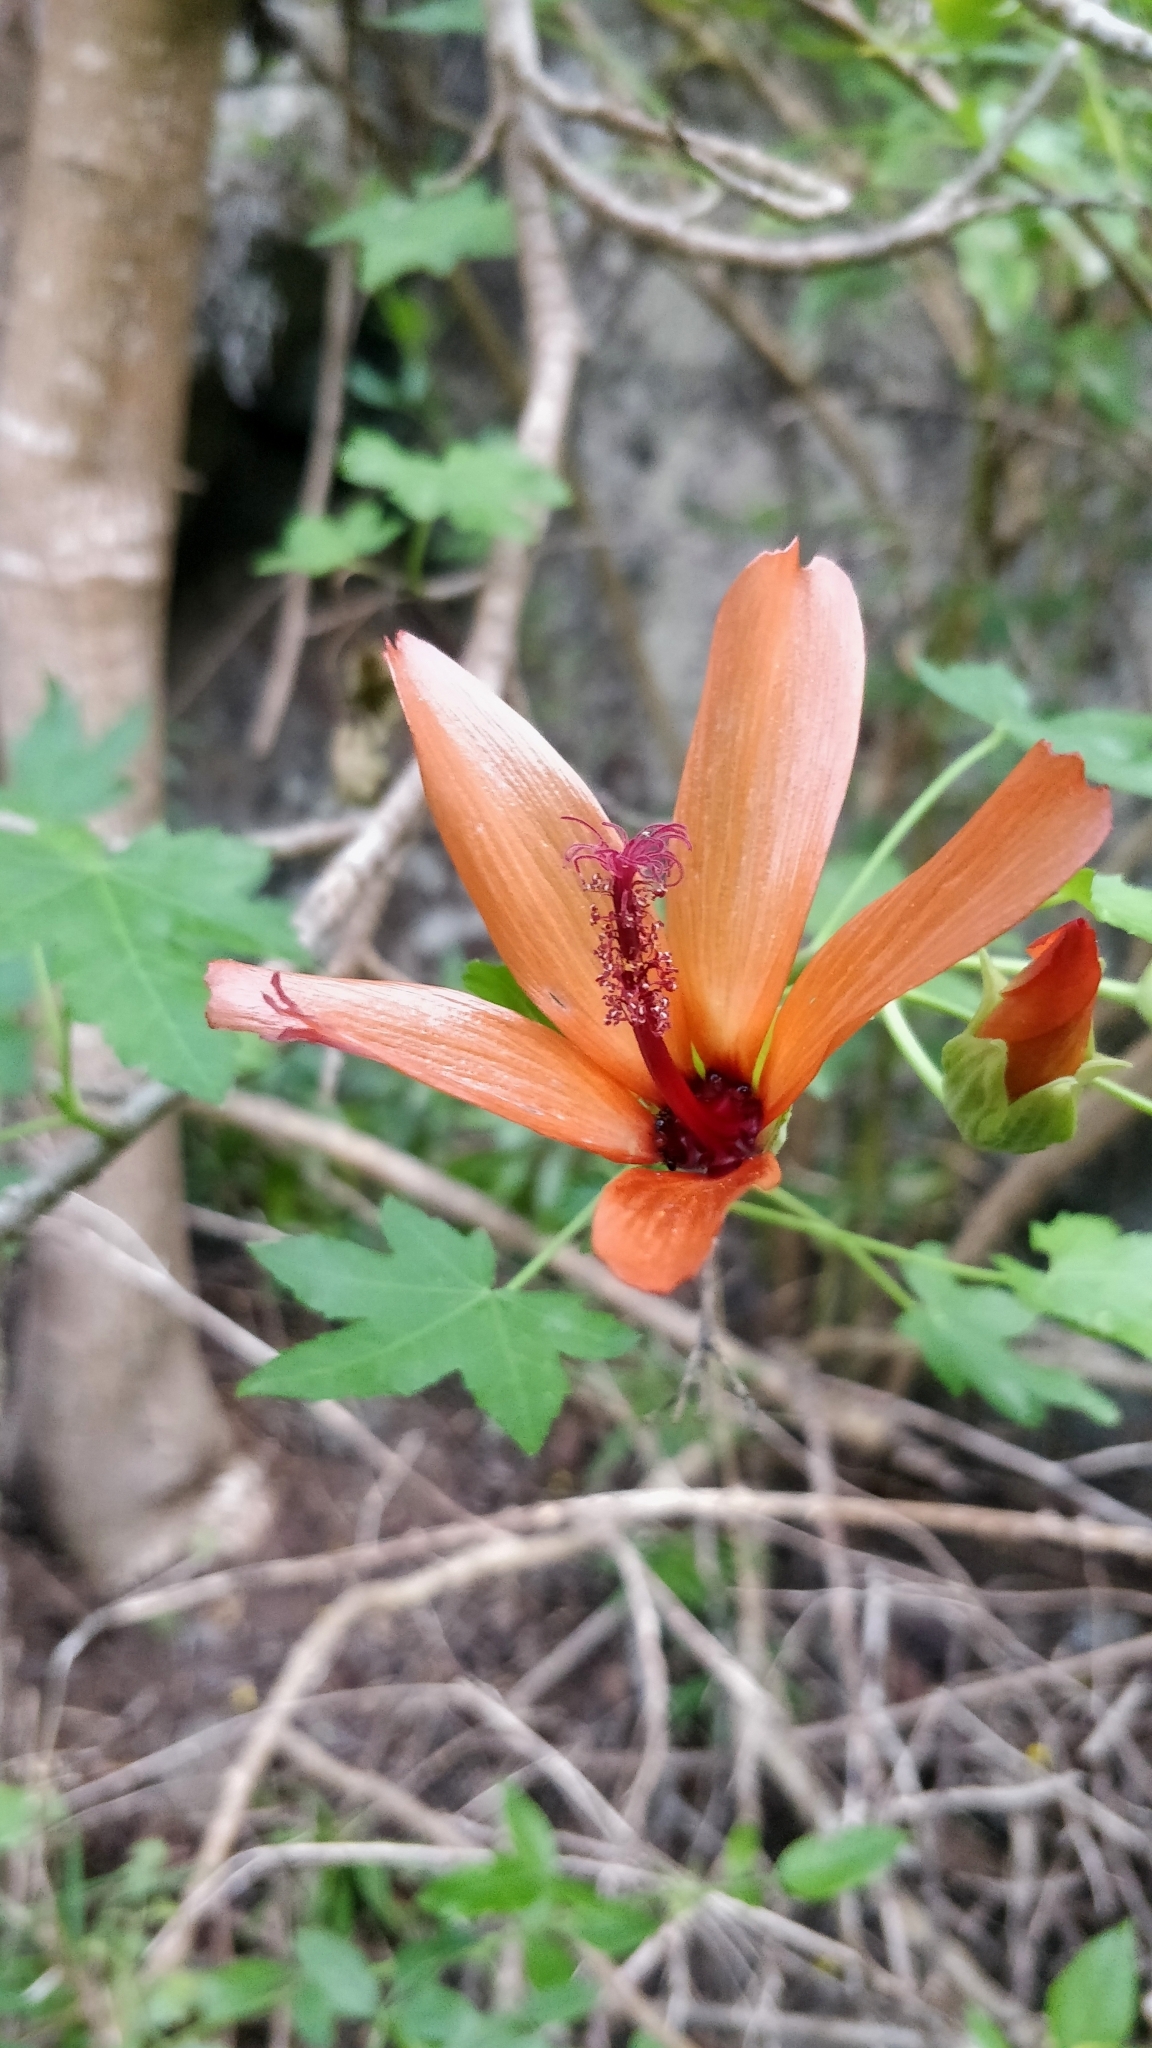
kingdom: Plantae
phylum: Tracheophyta
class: Magnoliopsida
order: Malvales
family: Malvaceae
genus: Malva
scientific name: Malva phoenicea
